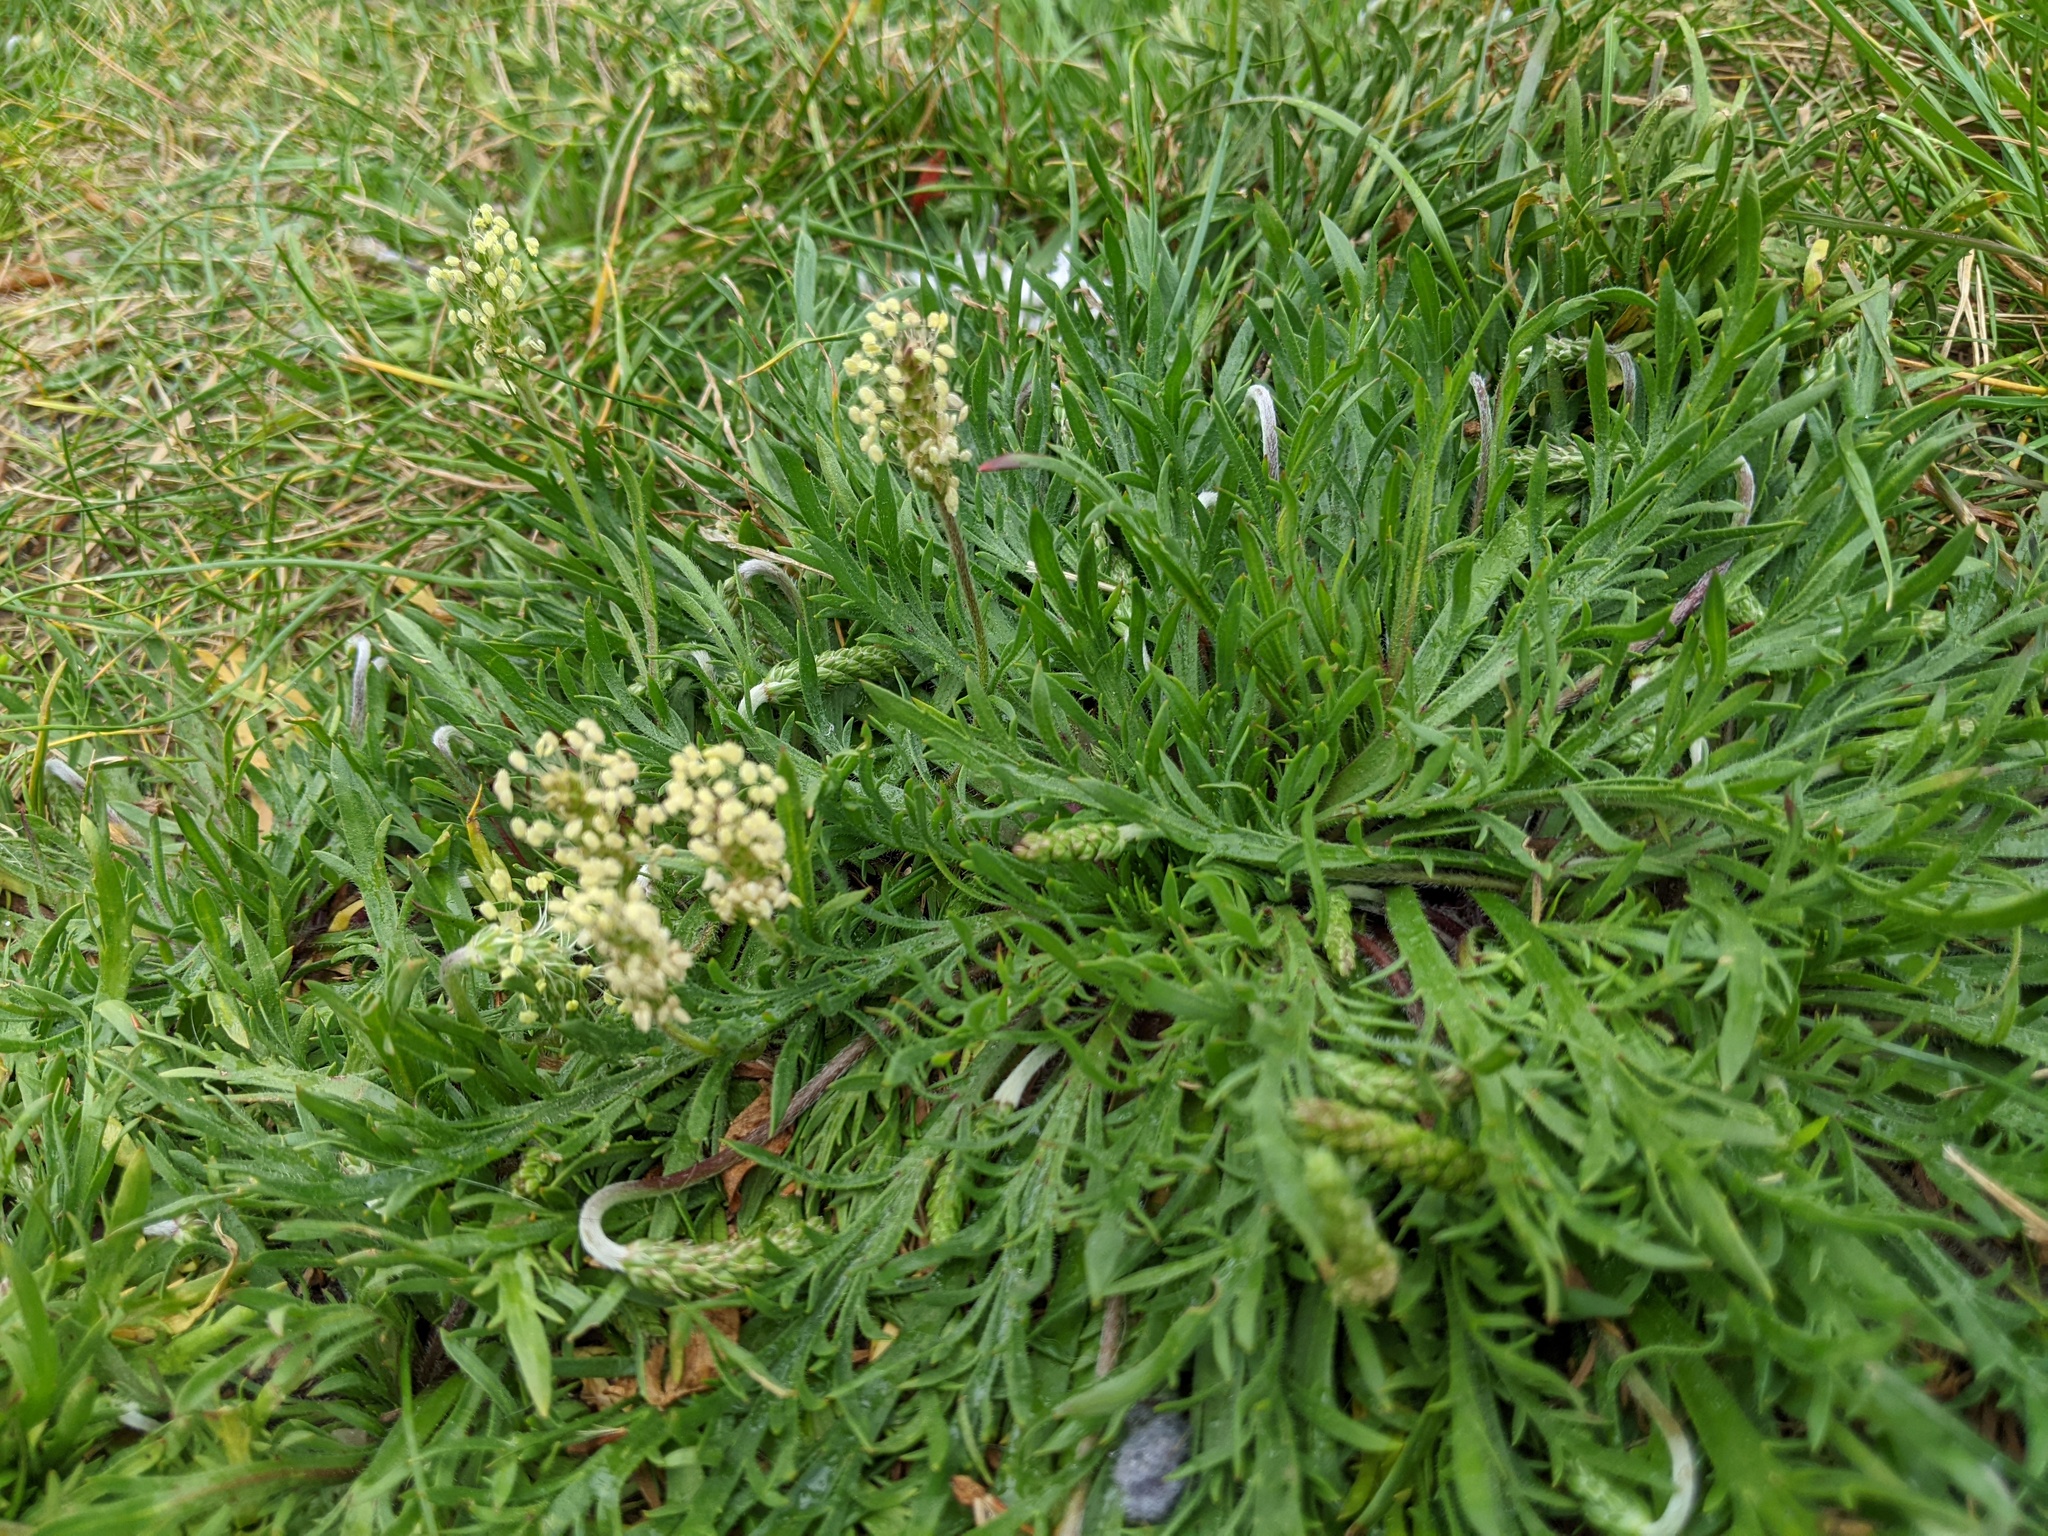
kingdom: Plantae
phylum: Tracheophyta
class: Magnoliopsida
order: Lamiales
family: Plantaginaceae
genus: Plantago
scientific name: Plantago coronopus
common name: Buck's-horn plantain
